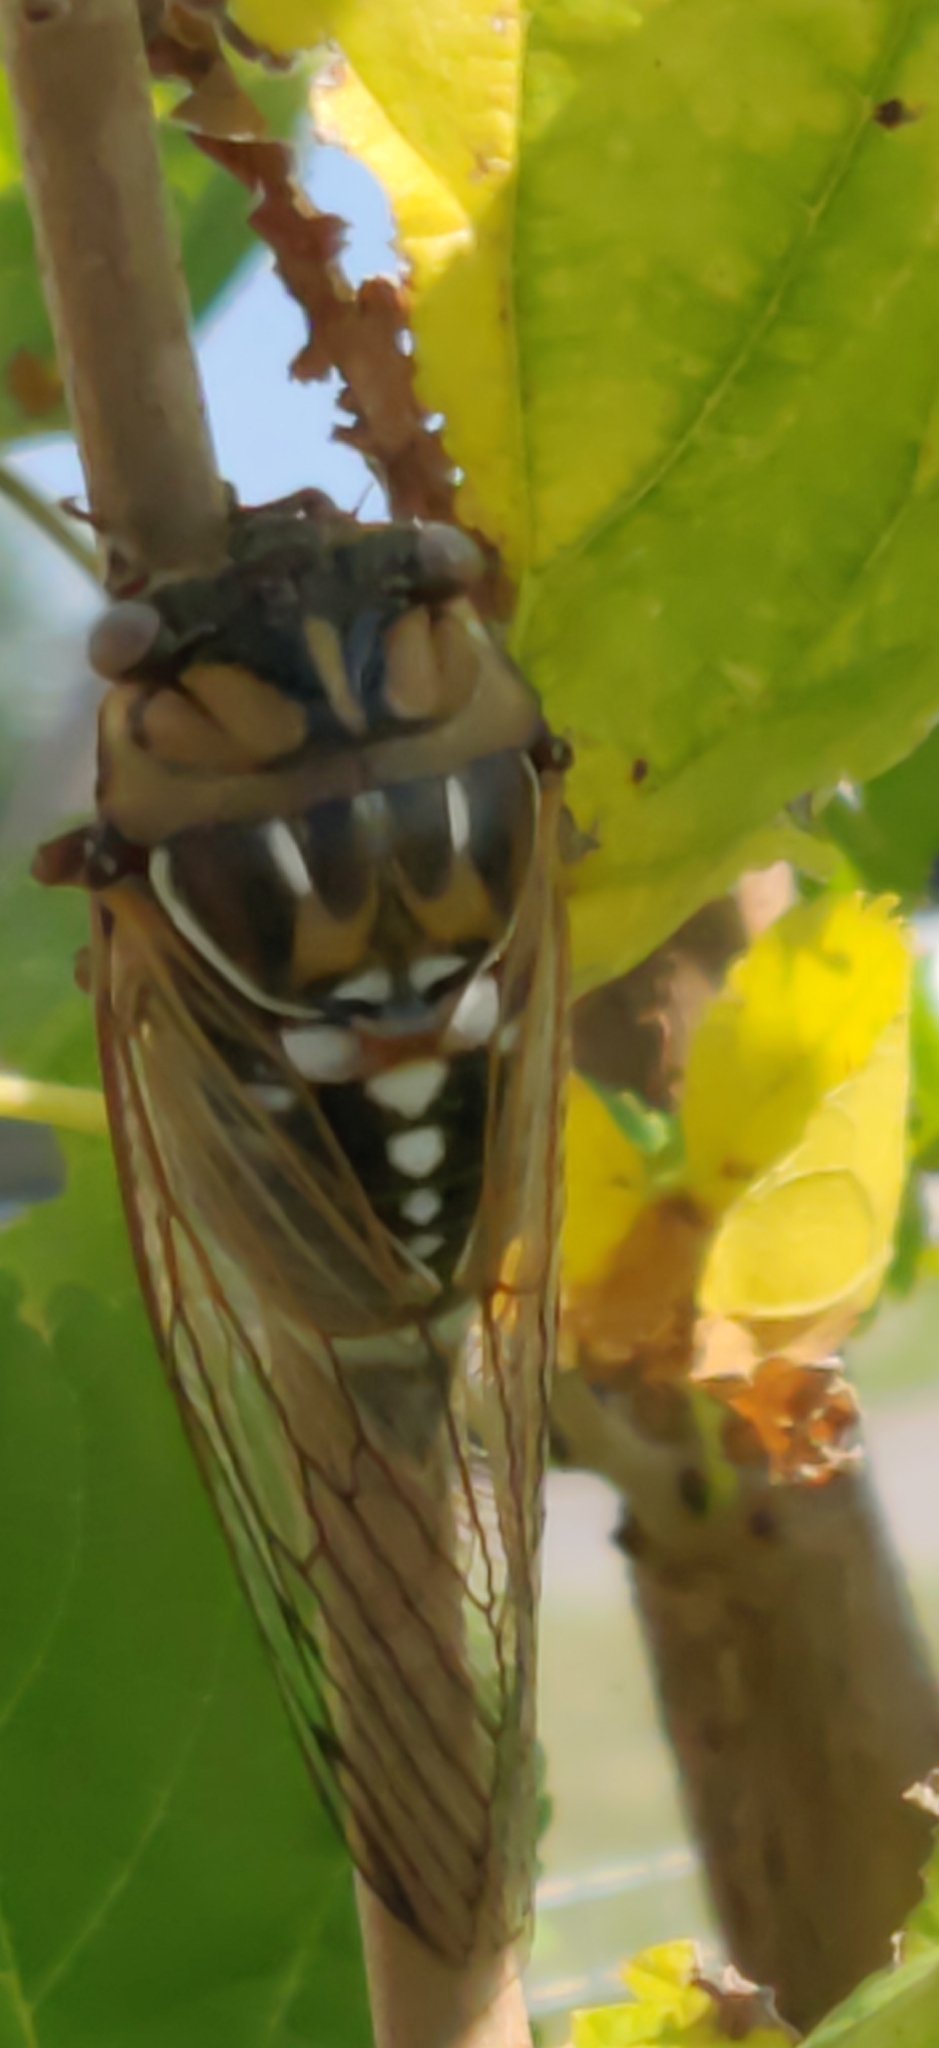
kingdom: Animalia
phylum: Arthropoda
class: Insecta
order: Hemiptera
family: Cicadidae
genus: Megatibicen
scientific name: Megatibicen dorsatus
